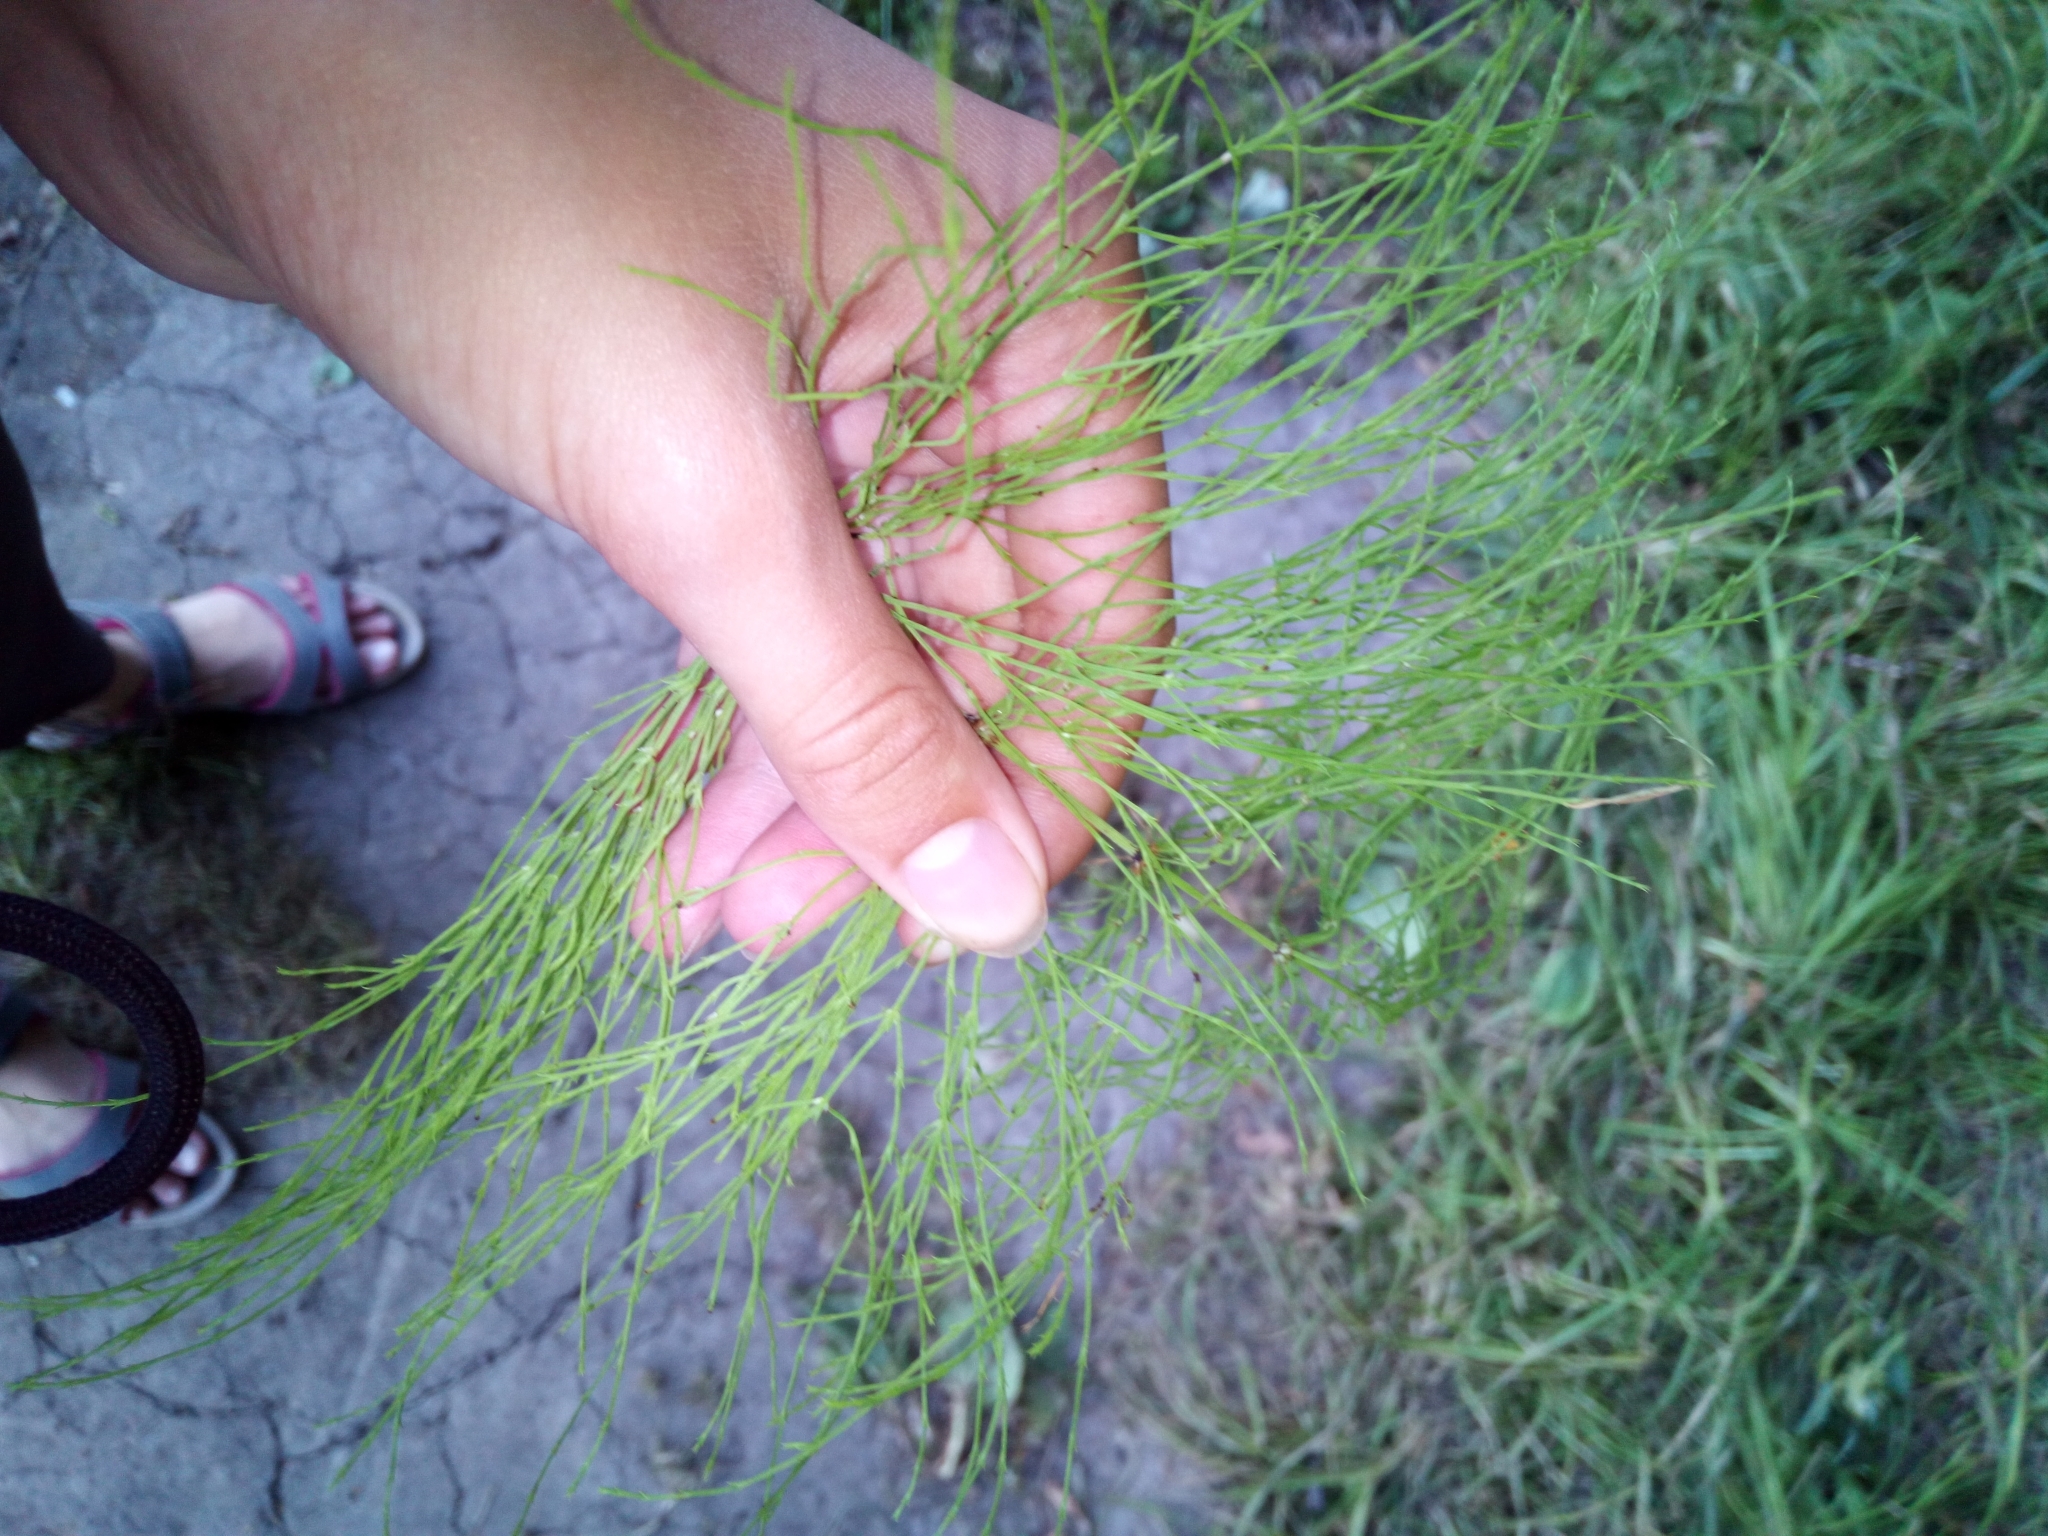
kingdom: Plantae
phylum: Tracheophyta
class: Polypodiopsida
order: Equisetales
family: Equisetaceae
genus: Equisetum
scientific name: Equisetum sylvaticum
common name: Wood horsetail
